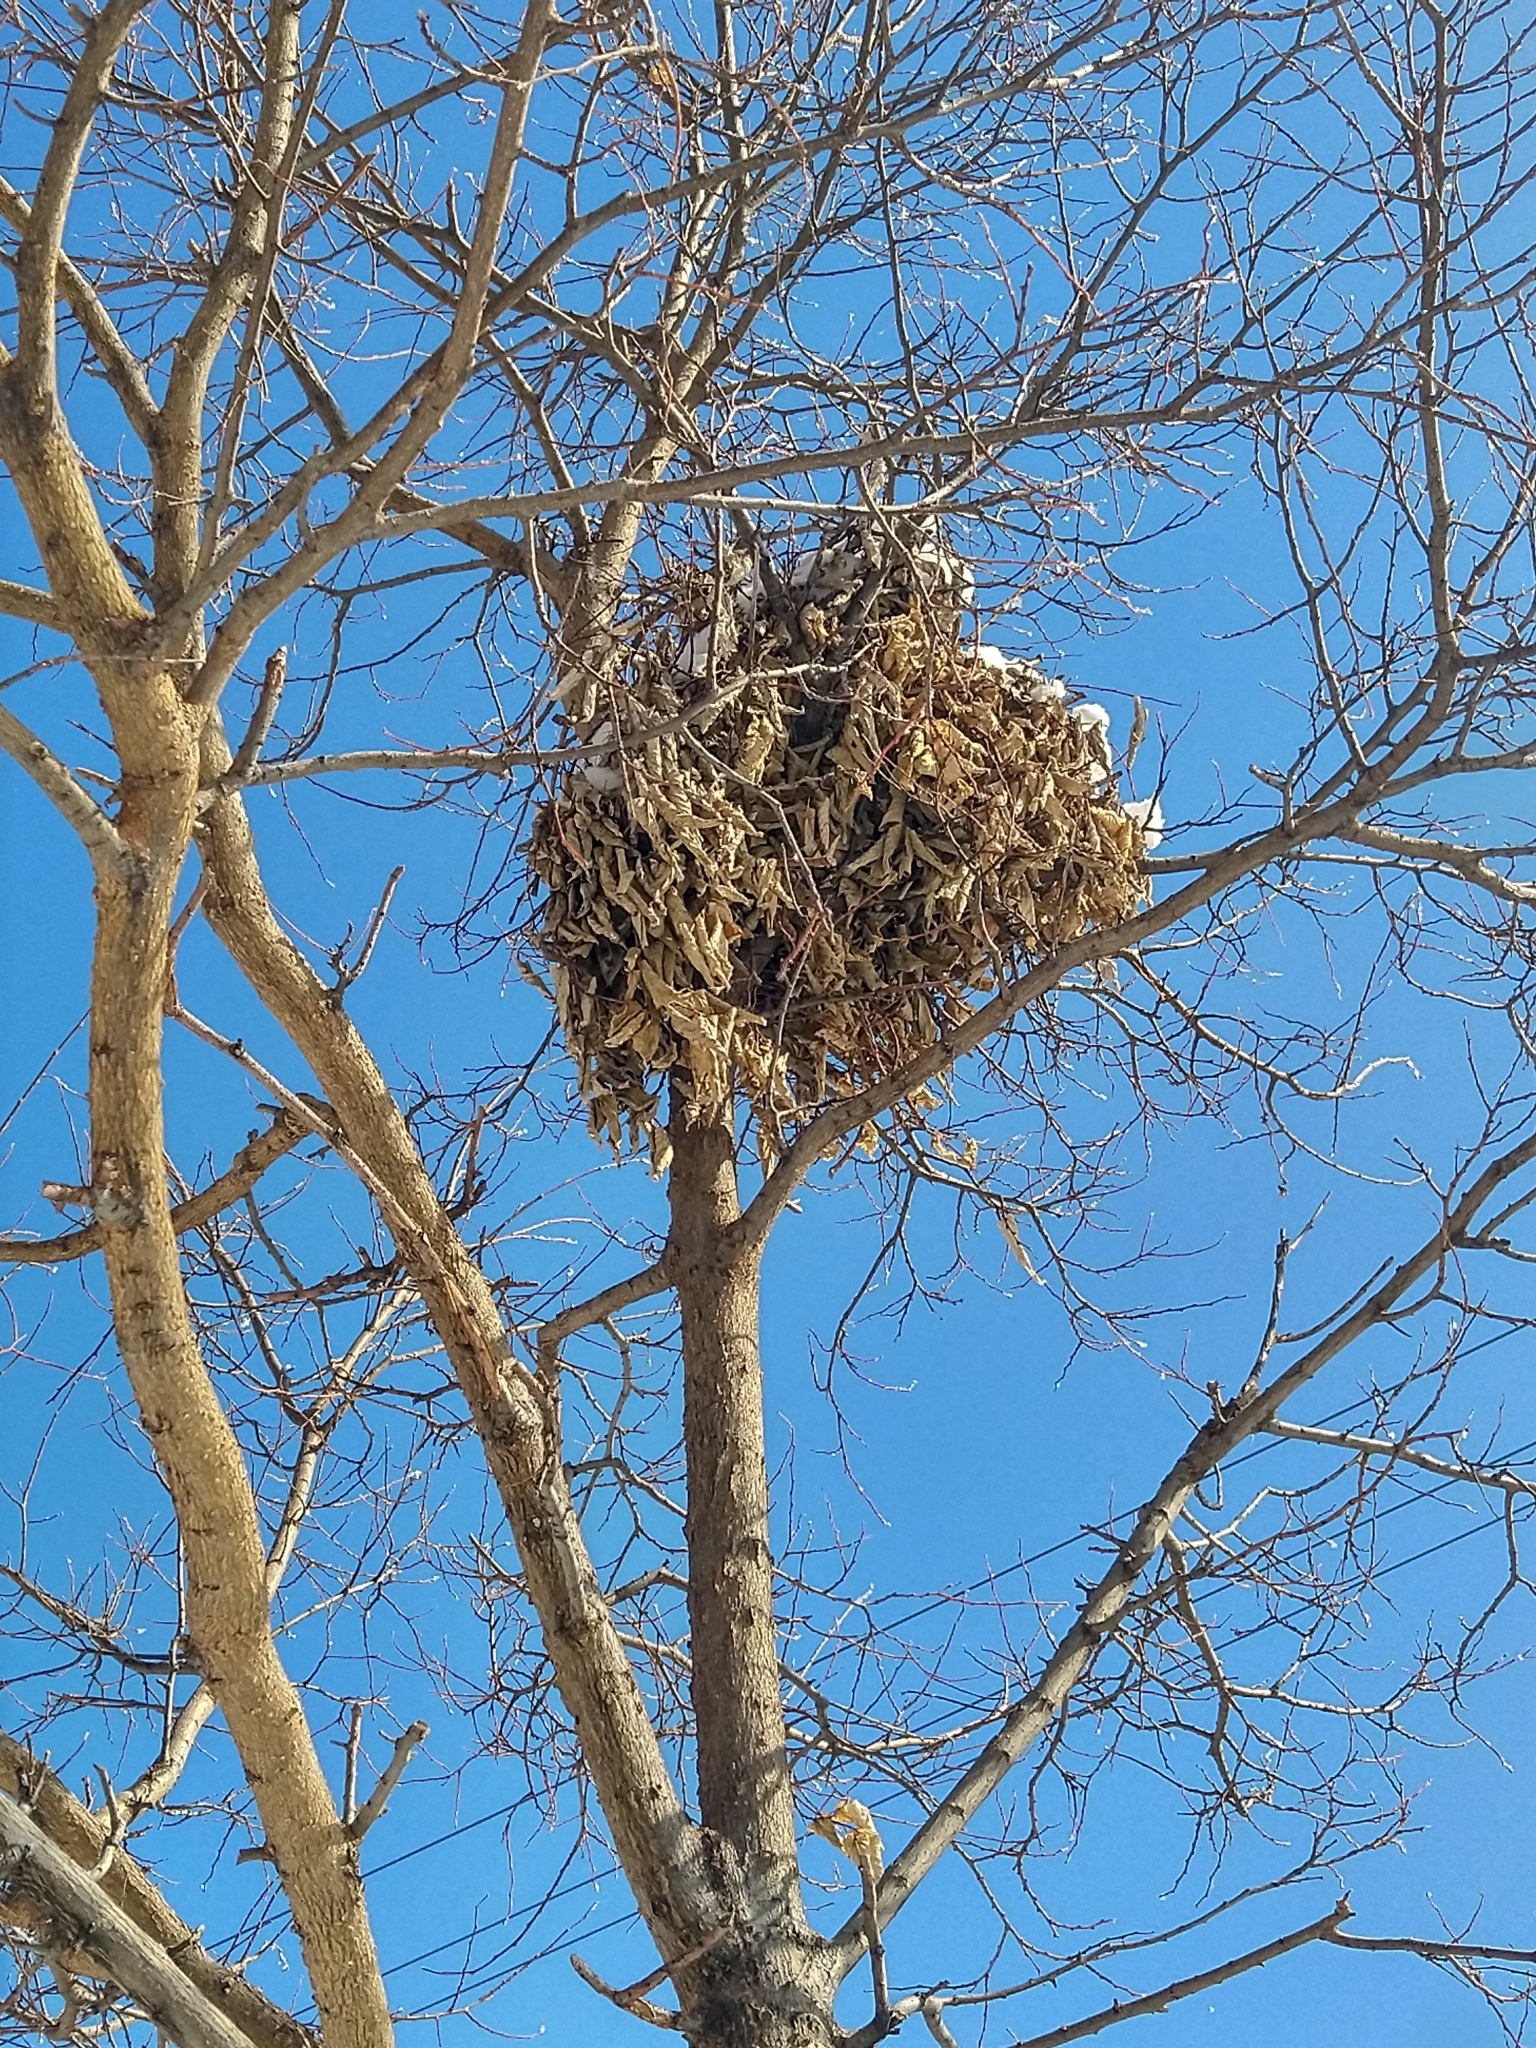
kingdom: Animalia
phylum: Chordata
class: Mammalia
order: Rodentia
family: Sciuridae
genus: Sciurus
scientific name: Sciurus carolinensis
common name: Eastern gray squirrel
